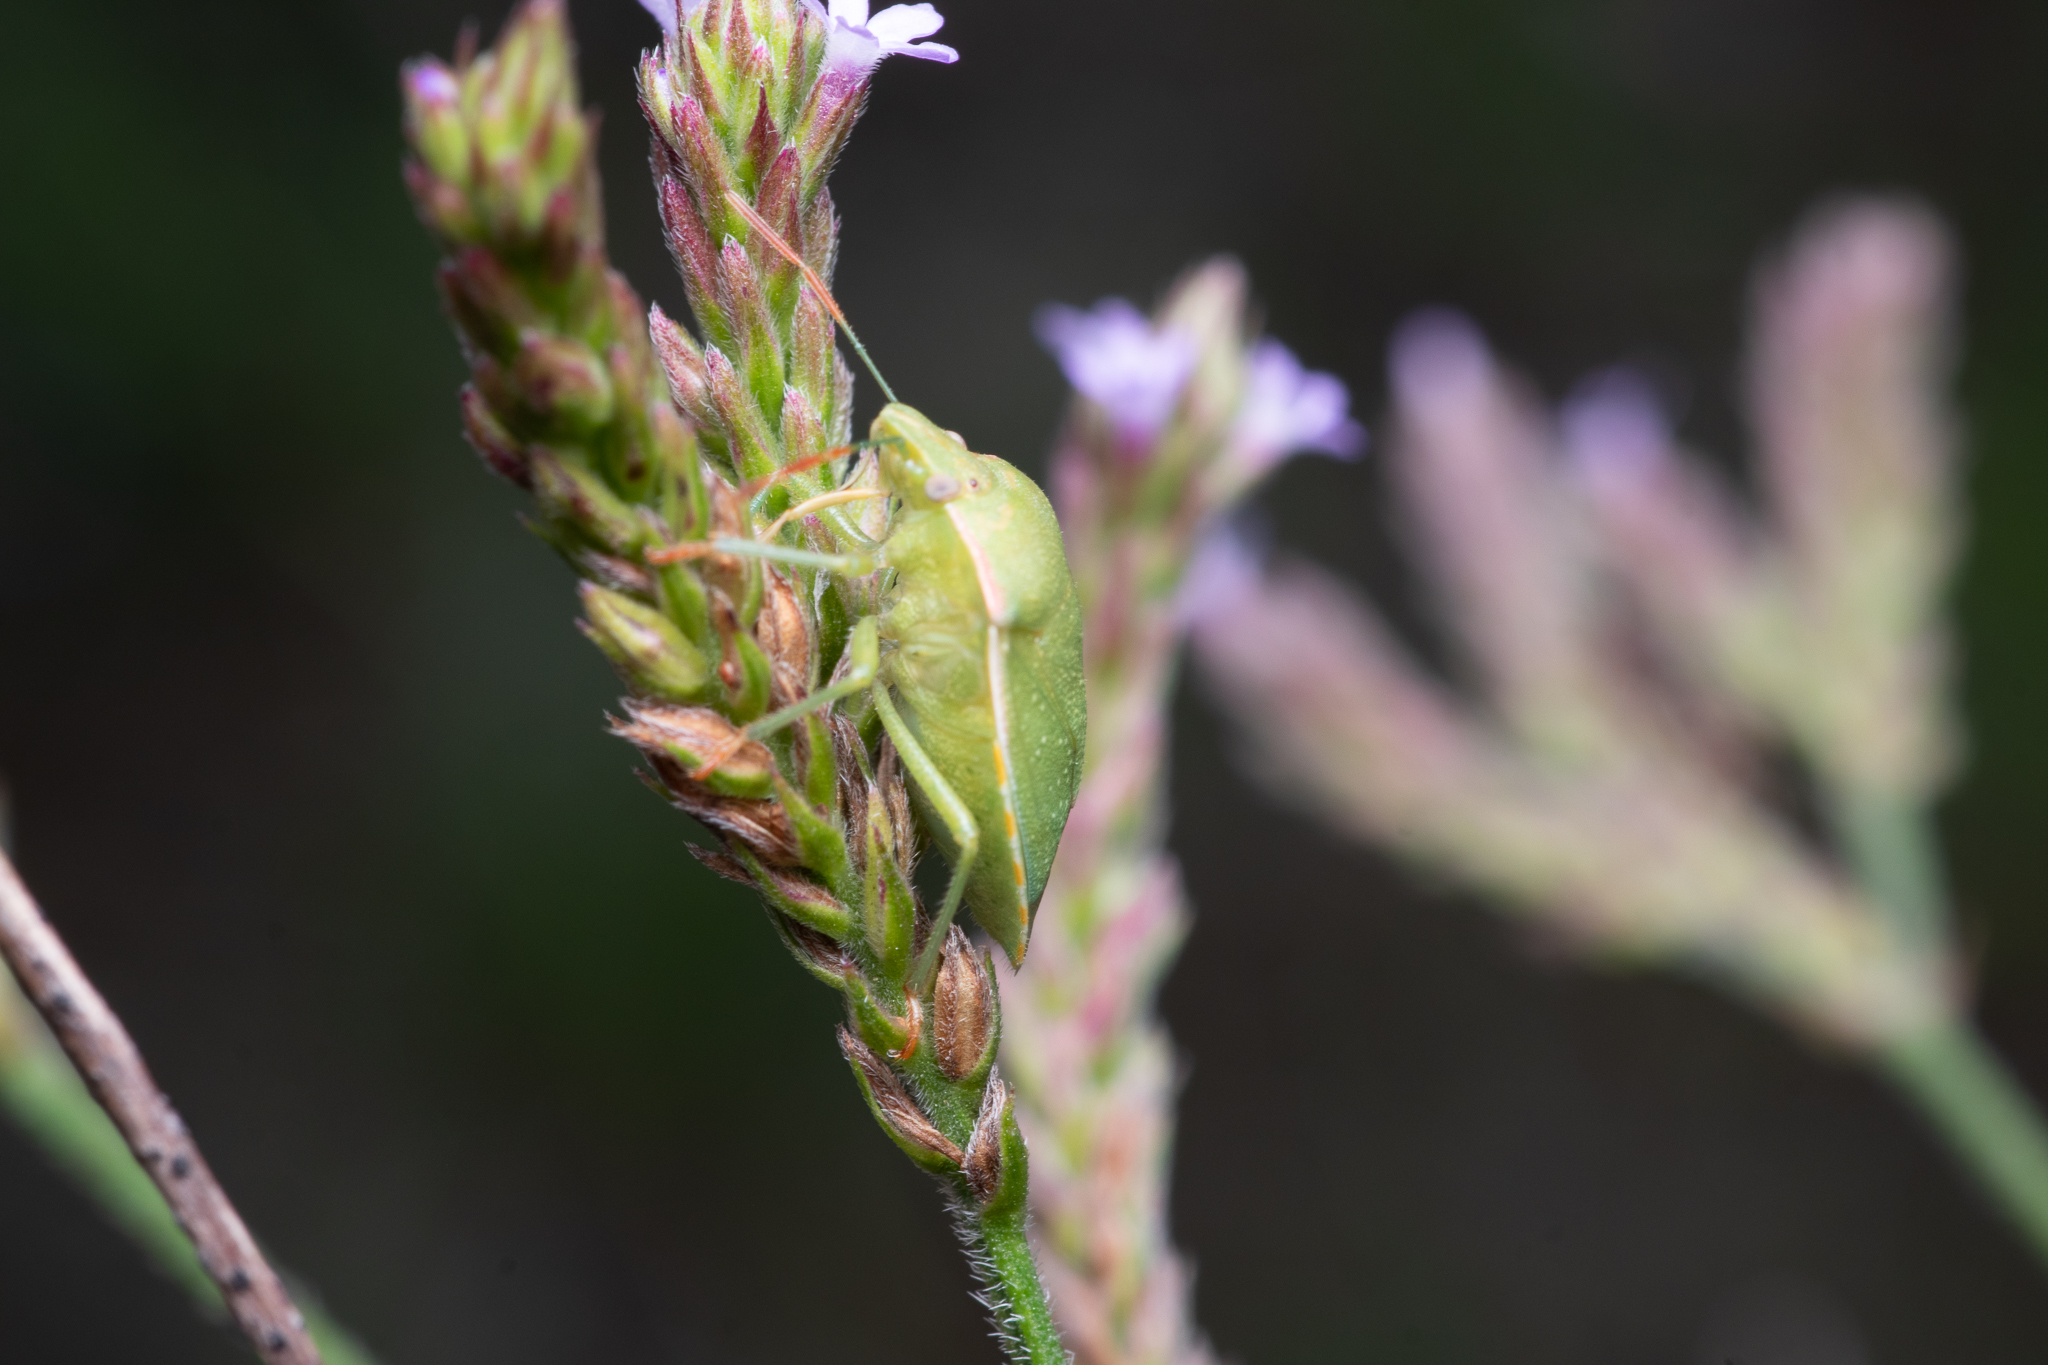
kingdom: Animalia
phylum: Arthropoda
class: Insecta
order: Hemiptera
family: Pentatomidae
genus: Thyanta
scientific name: Thyanta custator
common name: Stink bug
